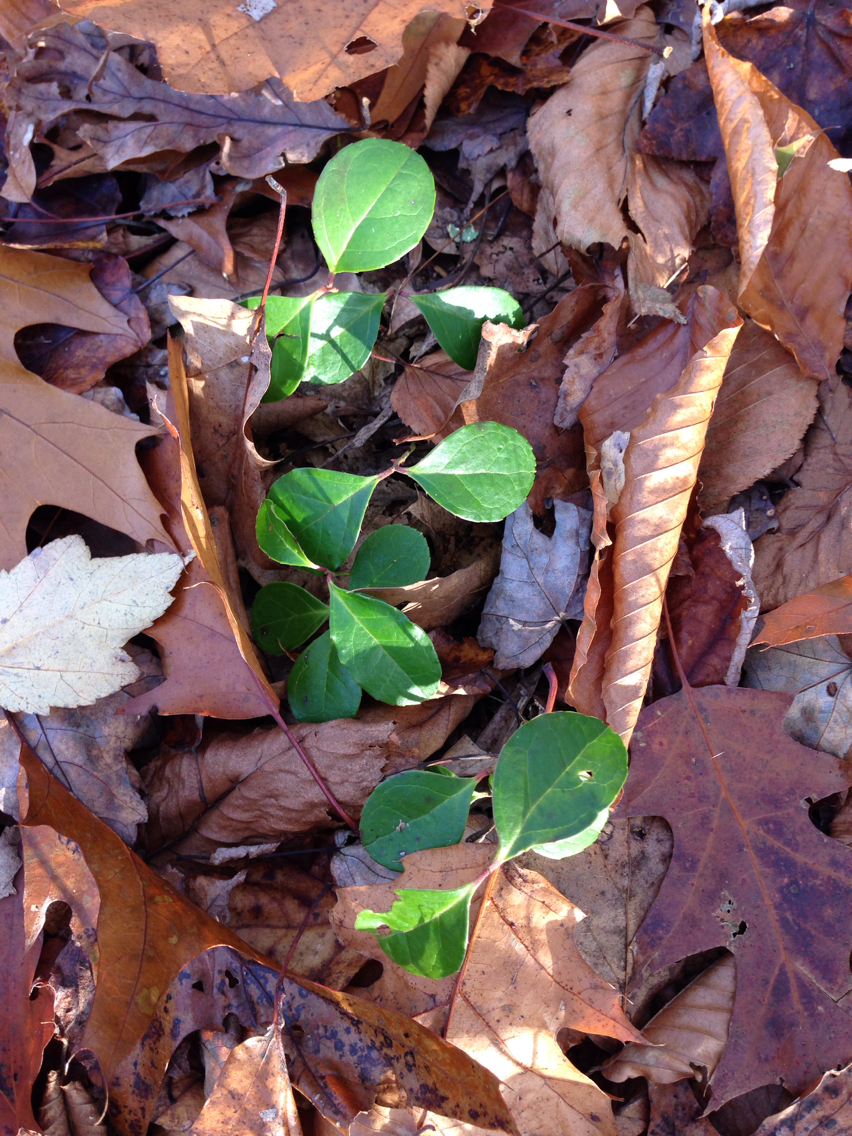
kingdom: Plantae
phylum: Tracheophyta
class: Magnoliopsida
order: Ericales
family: Ericaceae
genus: Gaultheria
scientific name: Gaultheria procumbens
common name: Checkerberry
